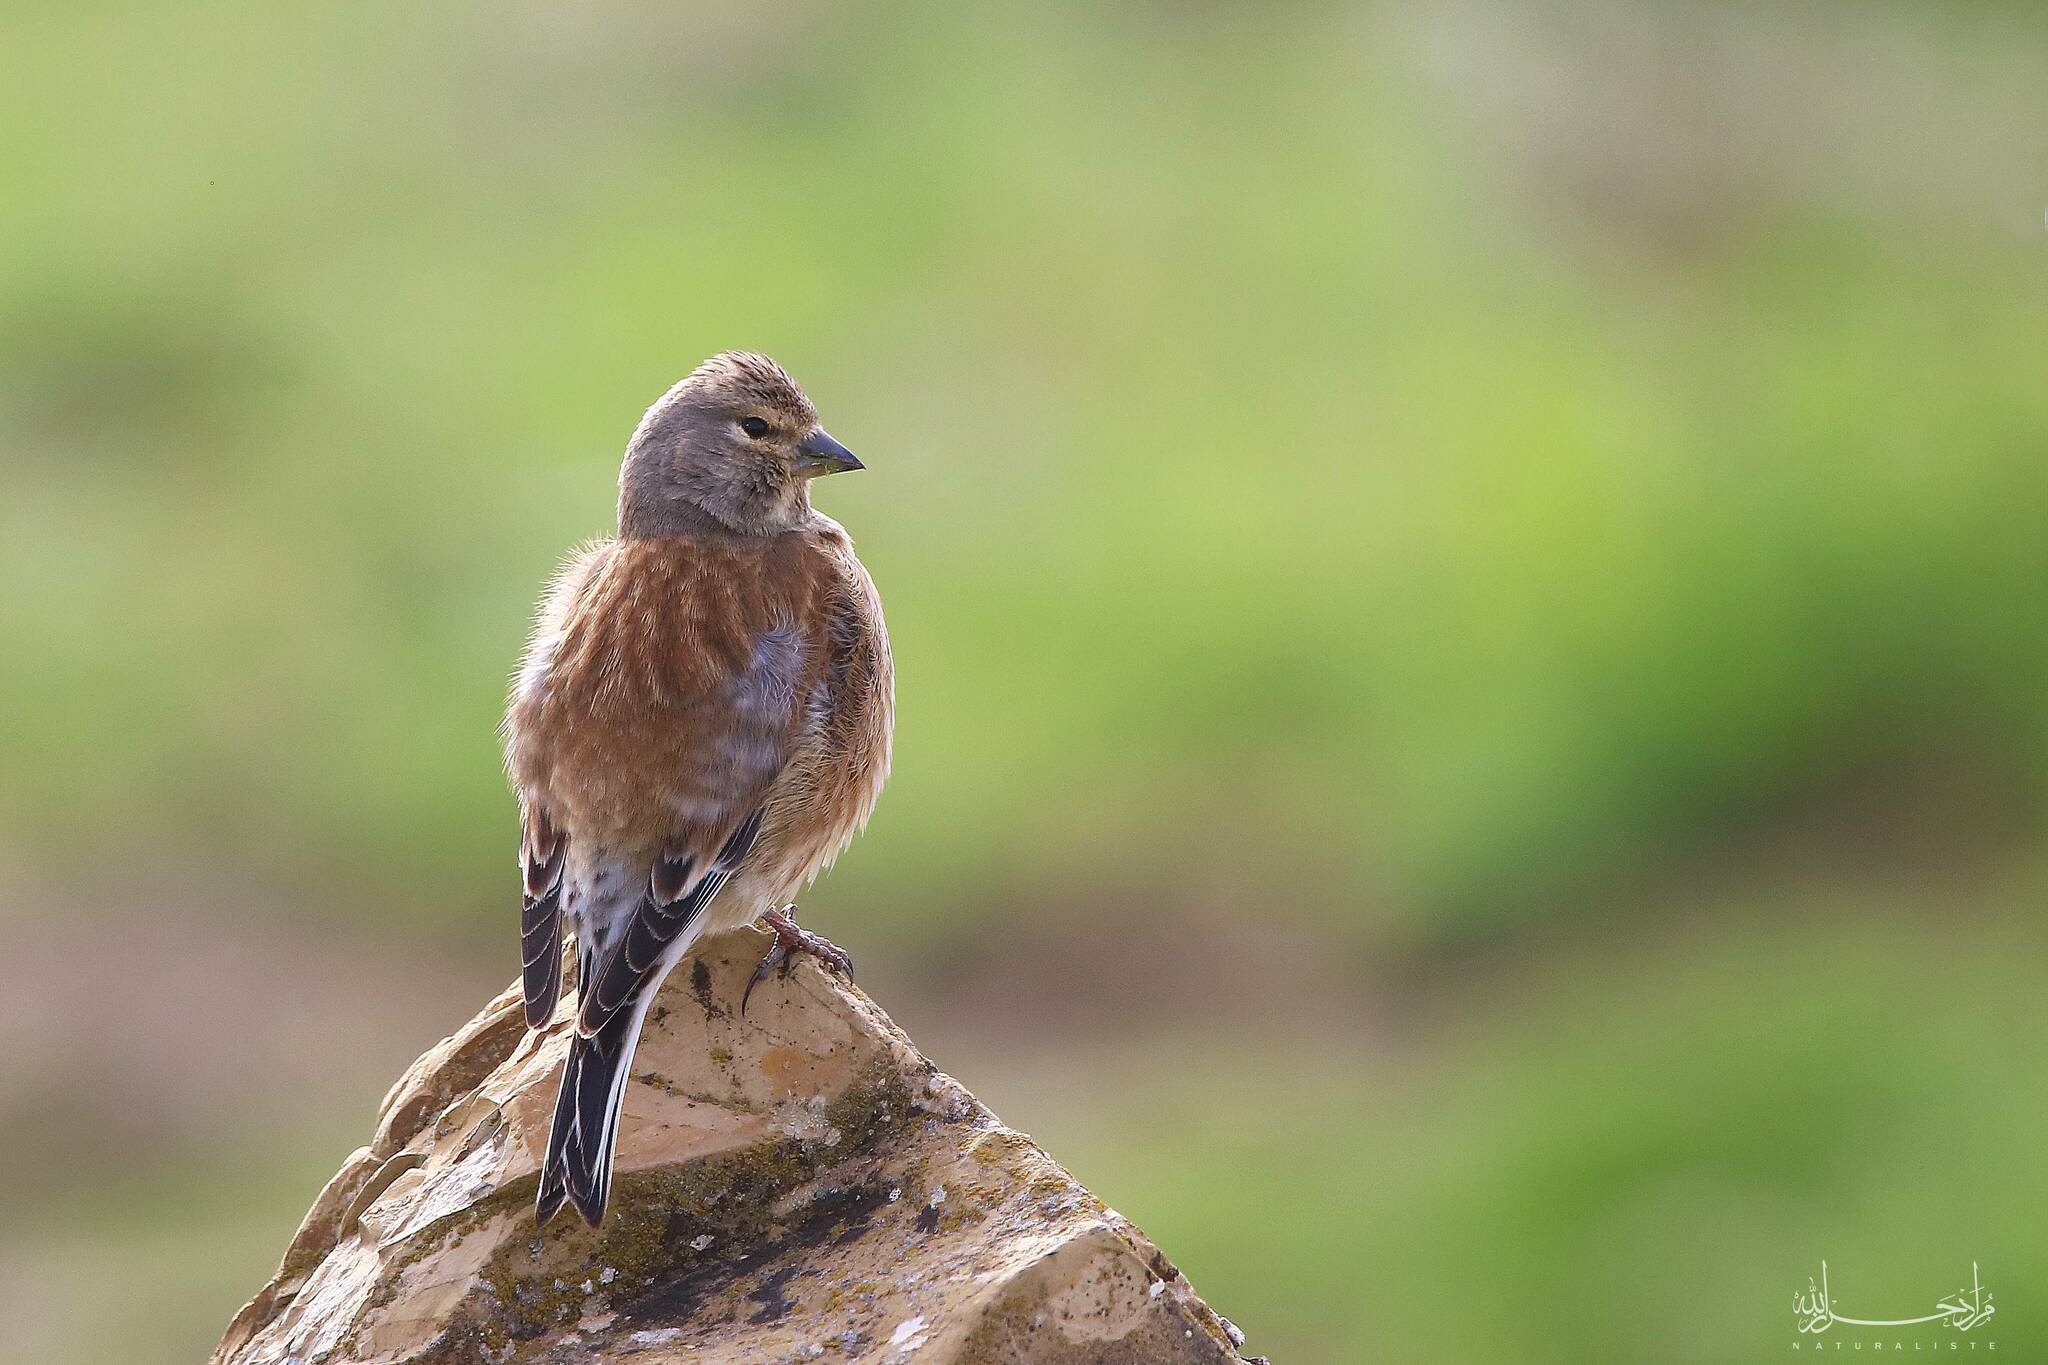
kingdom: Animalia
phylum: Chordata
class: Aves
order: Passeriformes
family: Fringillidae
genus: Linaria
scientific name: Linaria cannabina
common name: Common linnet
